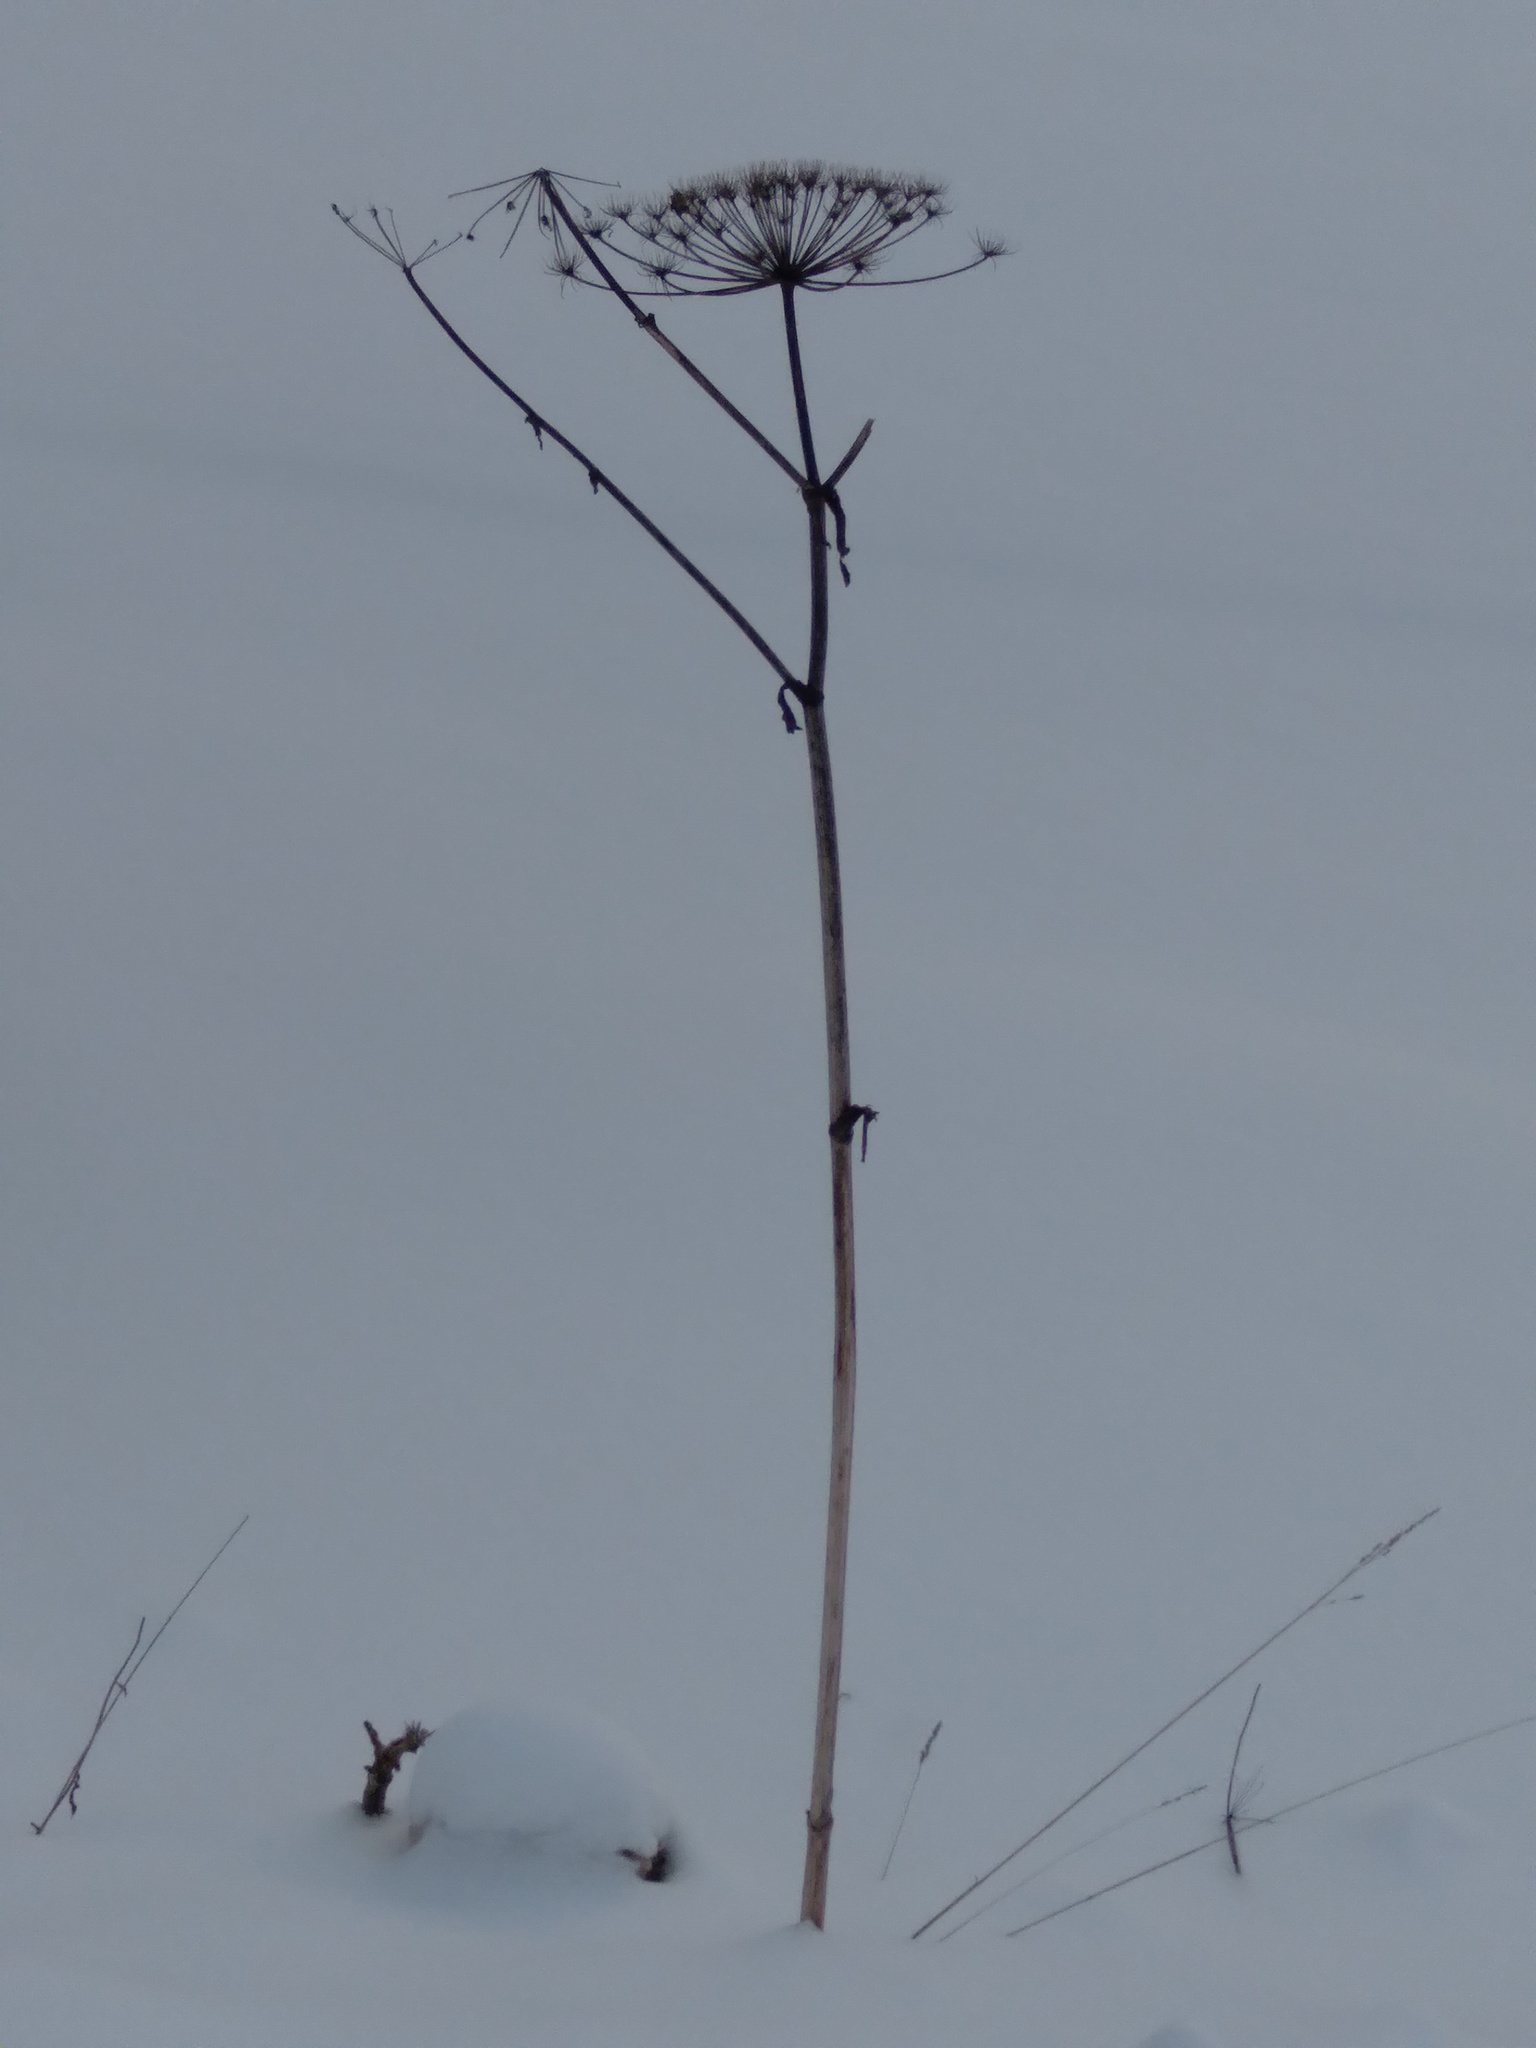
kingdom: Plantae
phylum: Tracheophyta
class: Magnoliopsida
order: Apiales
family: Apiaceae
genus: Heracleum
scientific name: Heracleum sosnowskyi
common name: Sosnowsky's hogweed
